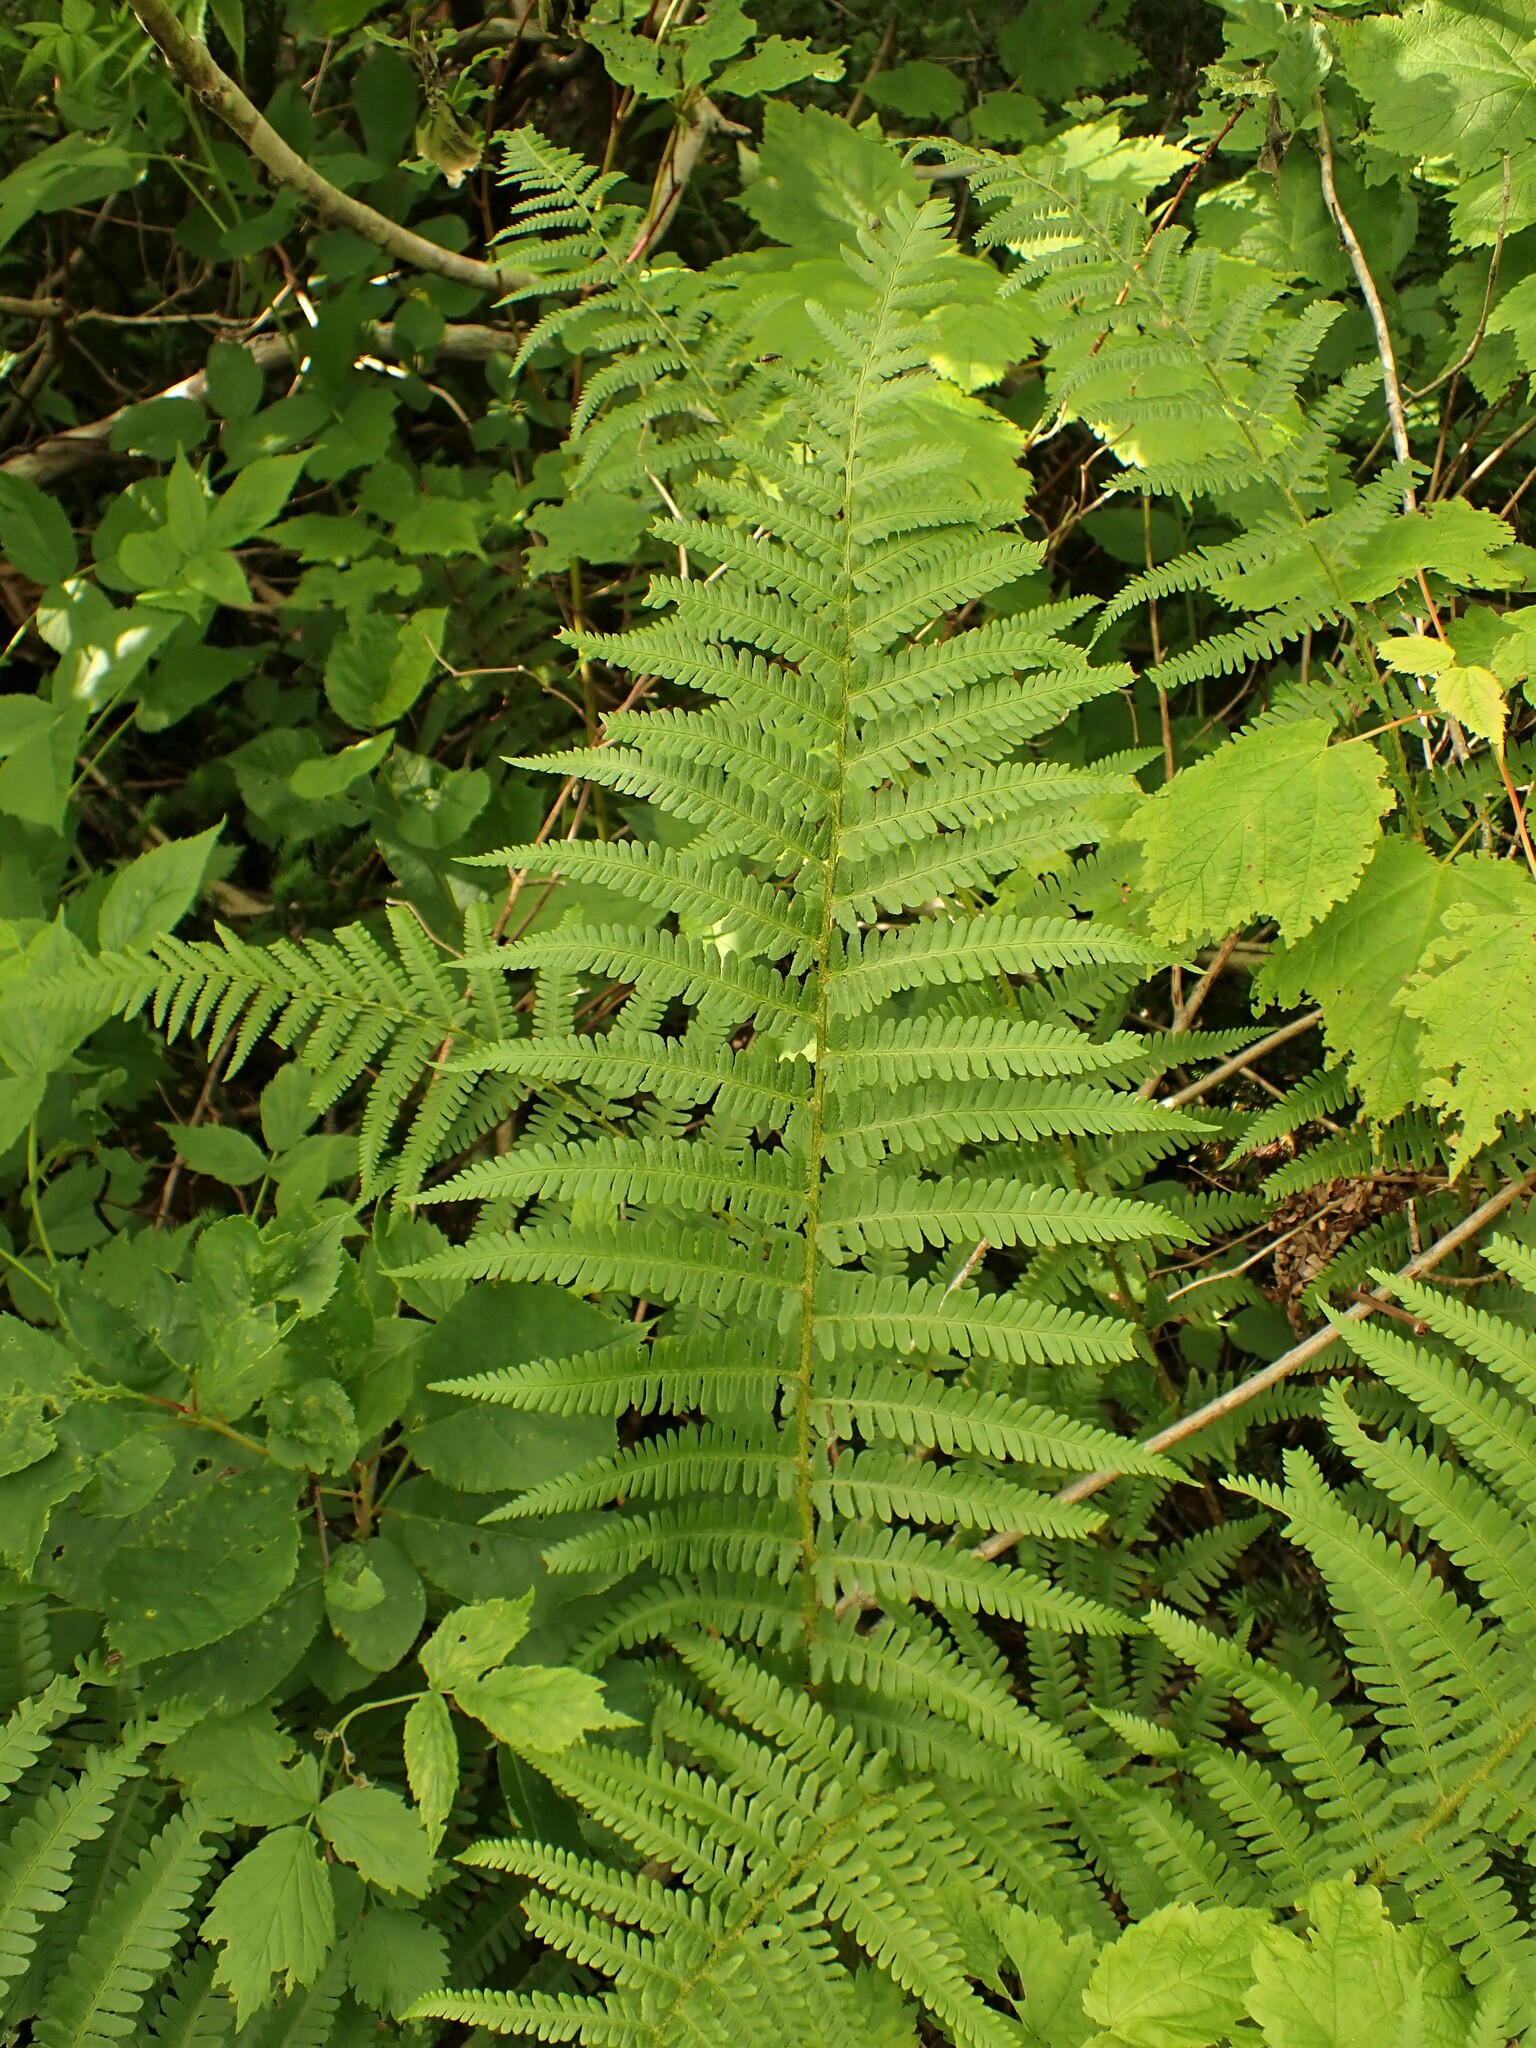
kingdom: Plantae
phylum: Tracheophyta
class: Polypodiopsida
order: Polypodiales
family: Dryopteridaceae
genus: Dryopteris
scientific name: Dryopteris filix-mas
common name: Male fern
